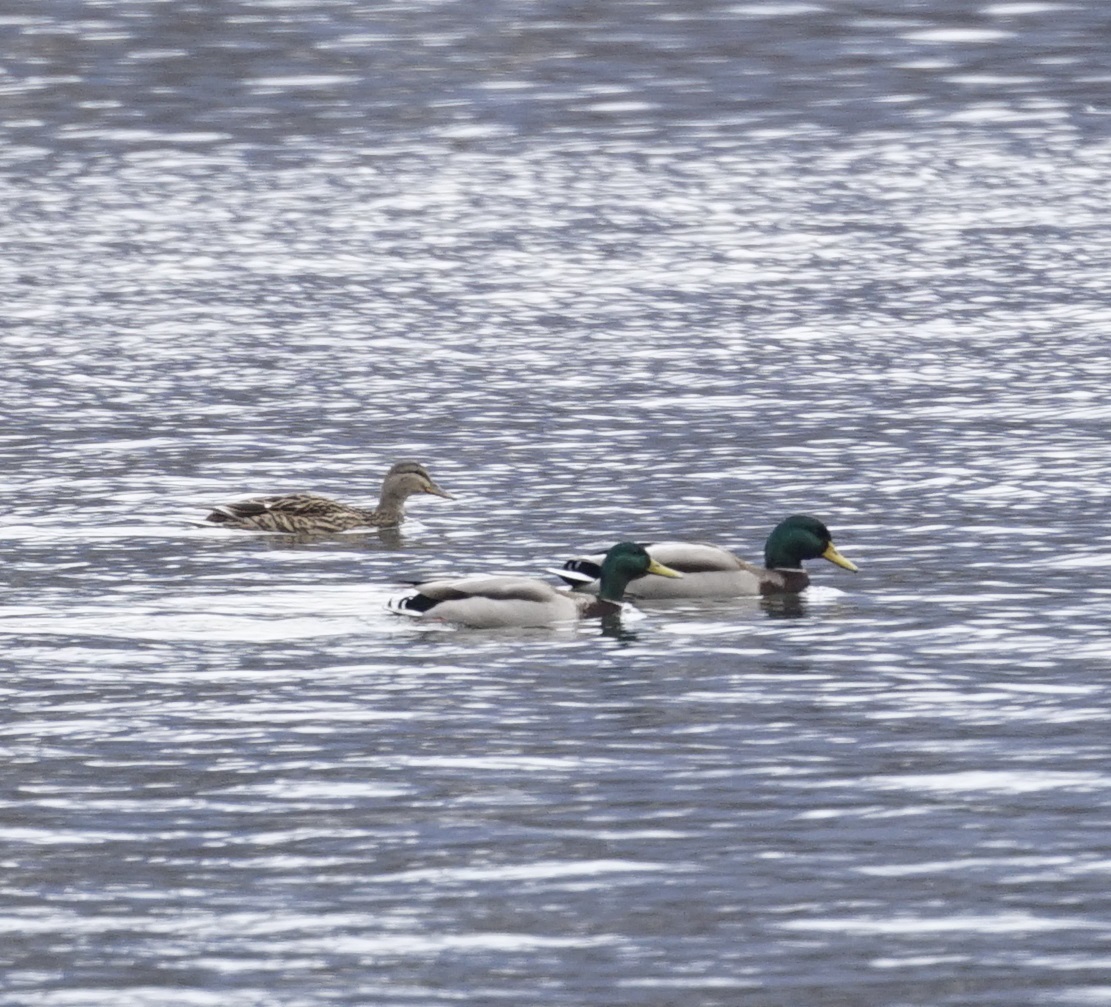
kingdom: Animalia
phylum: Chordata
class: Aves
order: Anseriformes
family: Anatidae
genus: Anas
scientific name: Anas platyrhynchos
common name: Mallard
